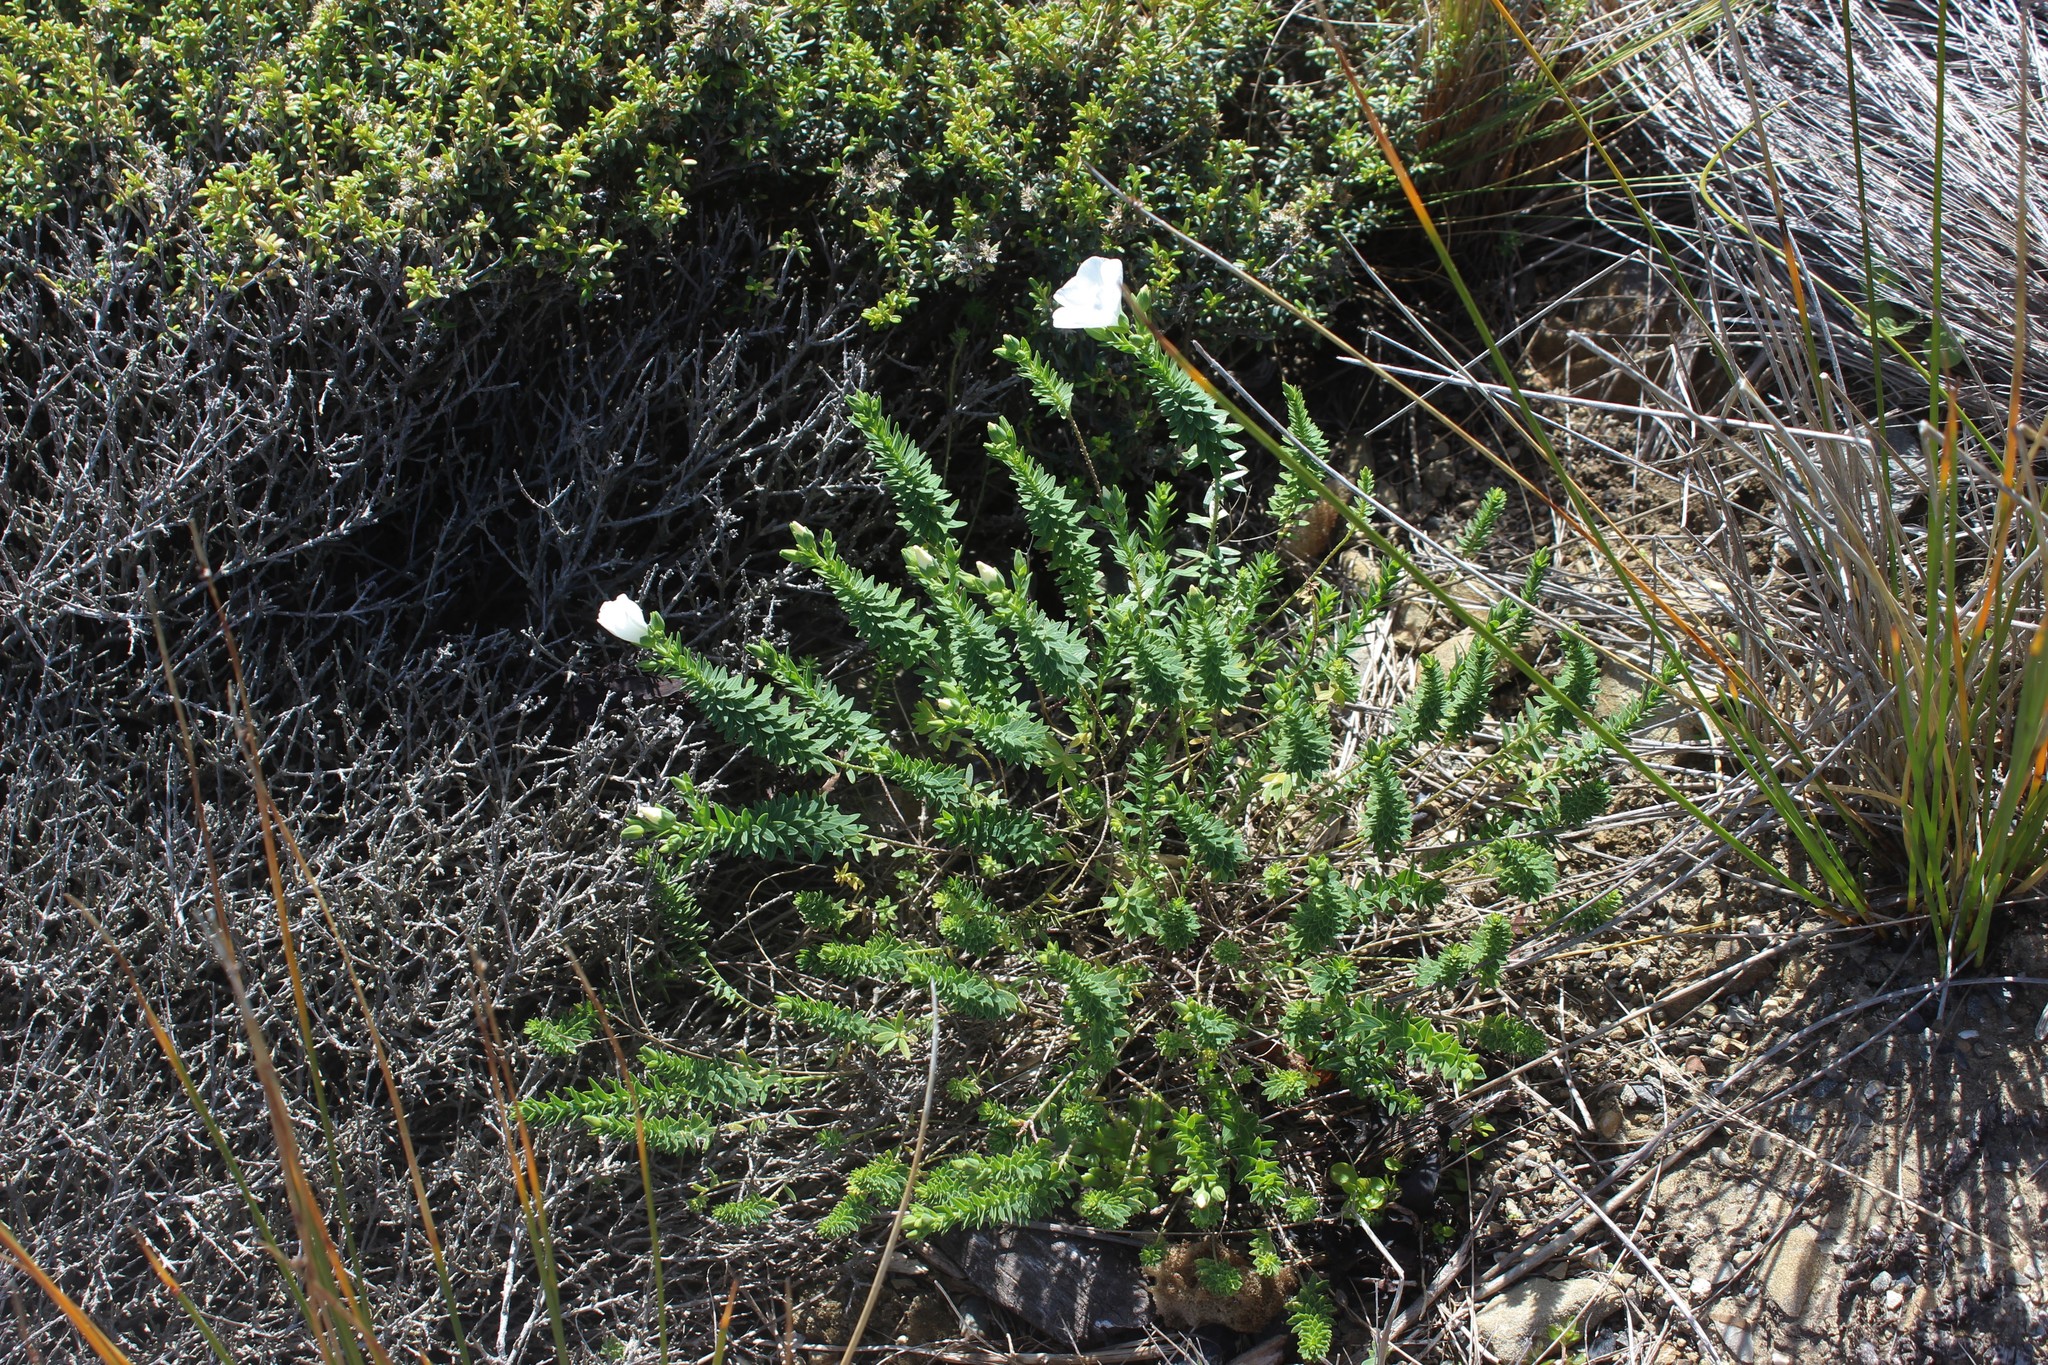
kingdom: Plantae
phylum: Tracheophyta
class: Magnoliopsida
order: Malpighiales
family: Linaceae
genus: Linum
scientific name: Linum monogynum
